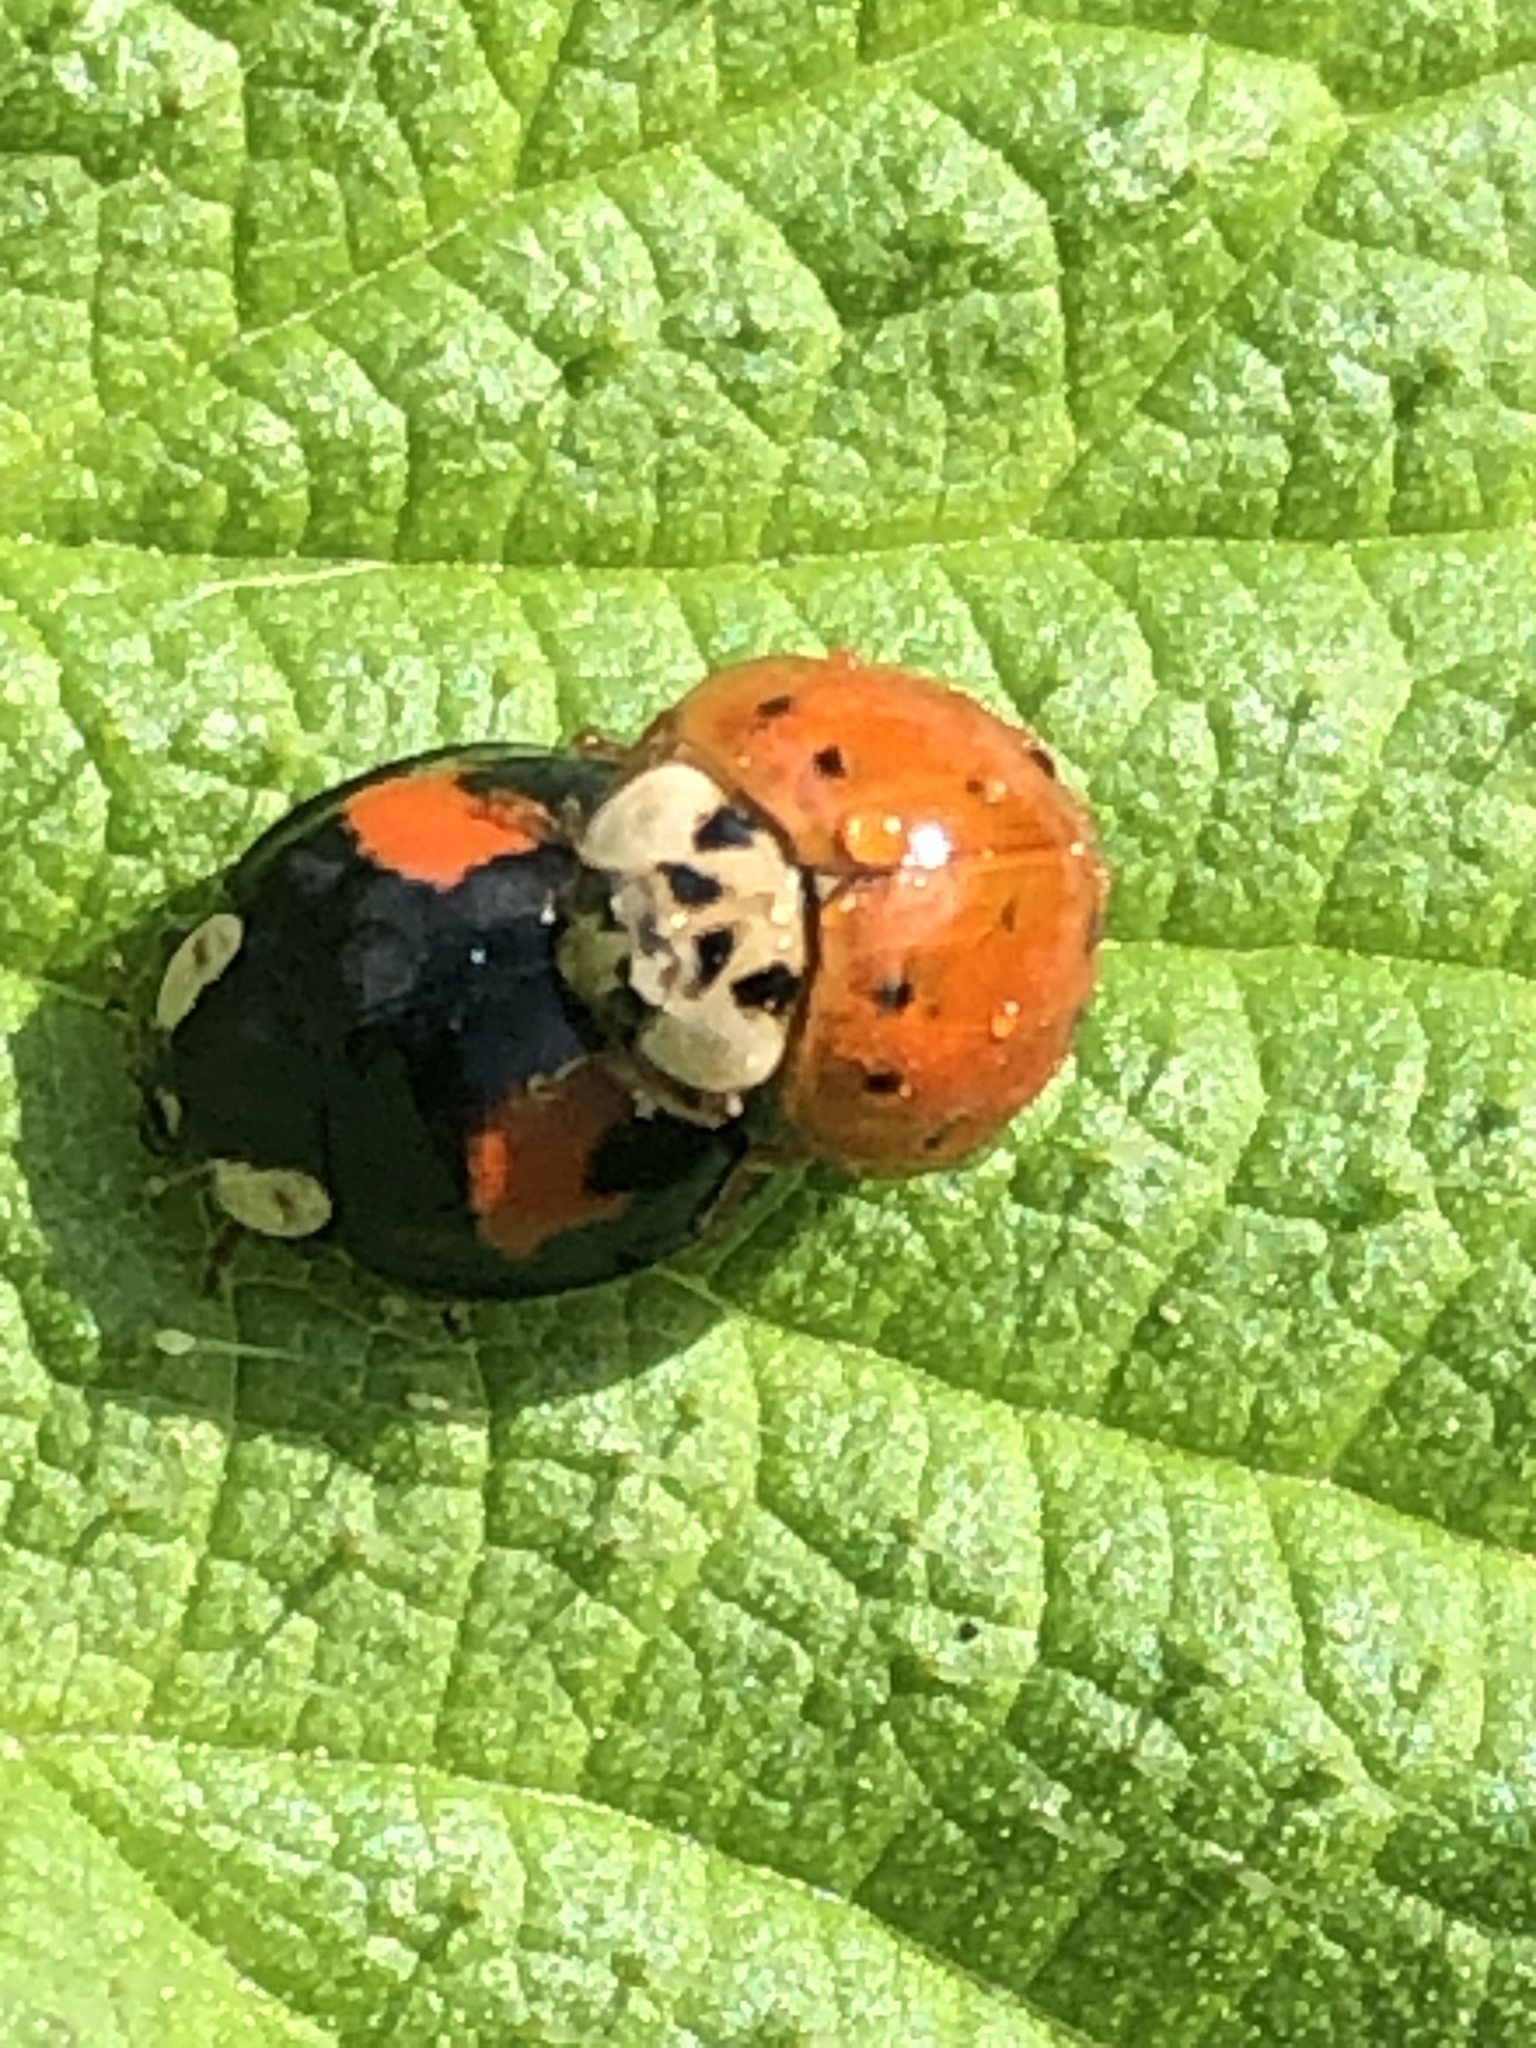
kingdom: Animalia
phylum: Arthropoda
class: Insecta
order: Coleoptera
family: Coccinellidae
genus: Harmonia
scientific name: Harmonia axyridis
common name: Harlequin ladybird
